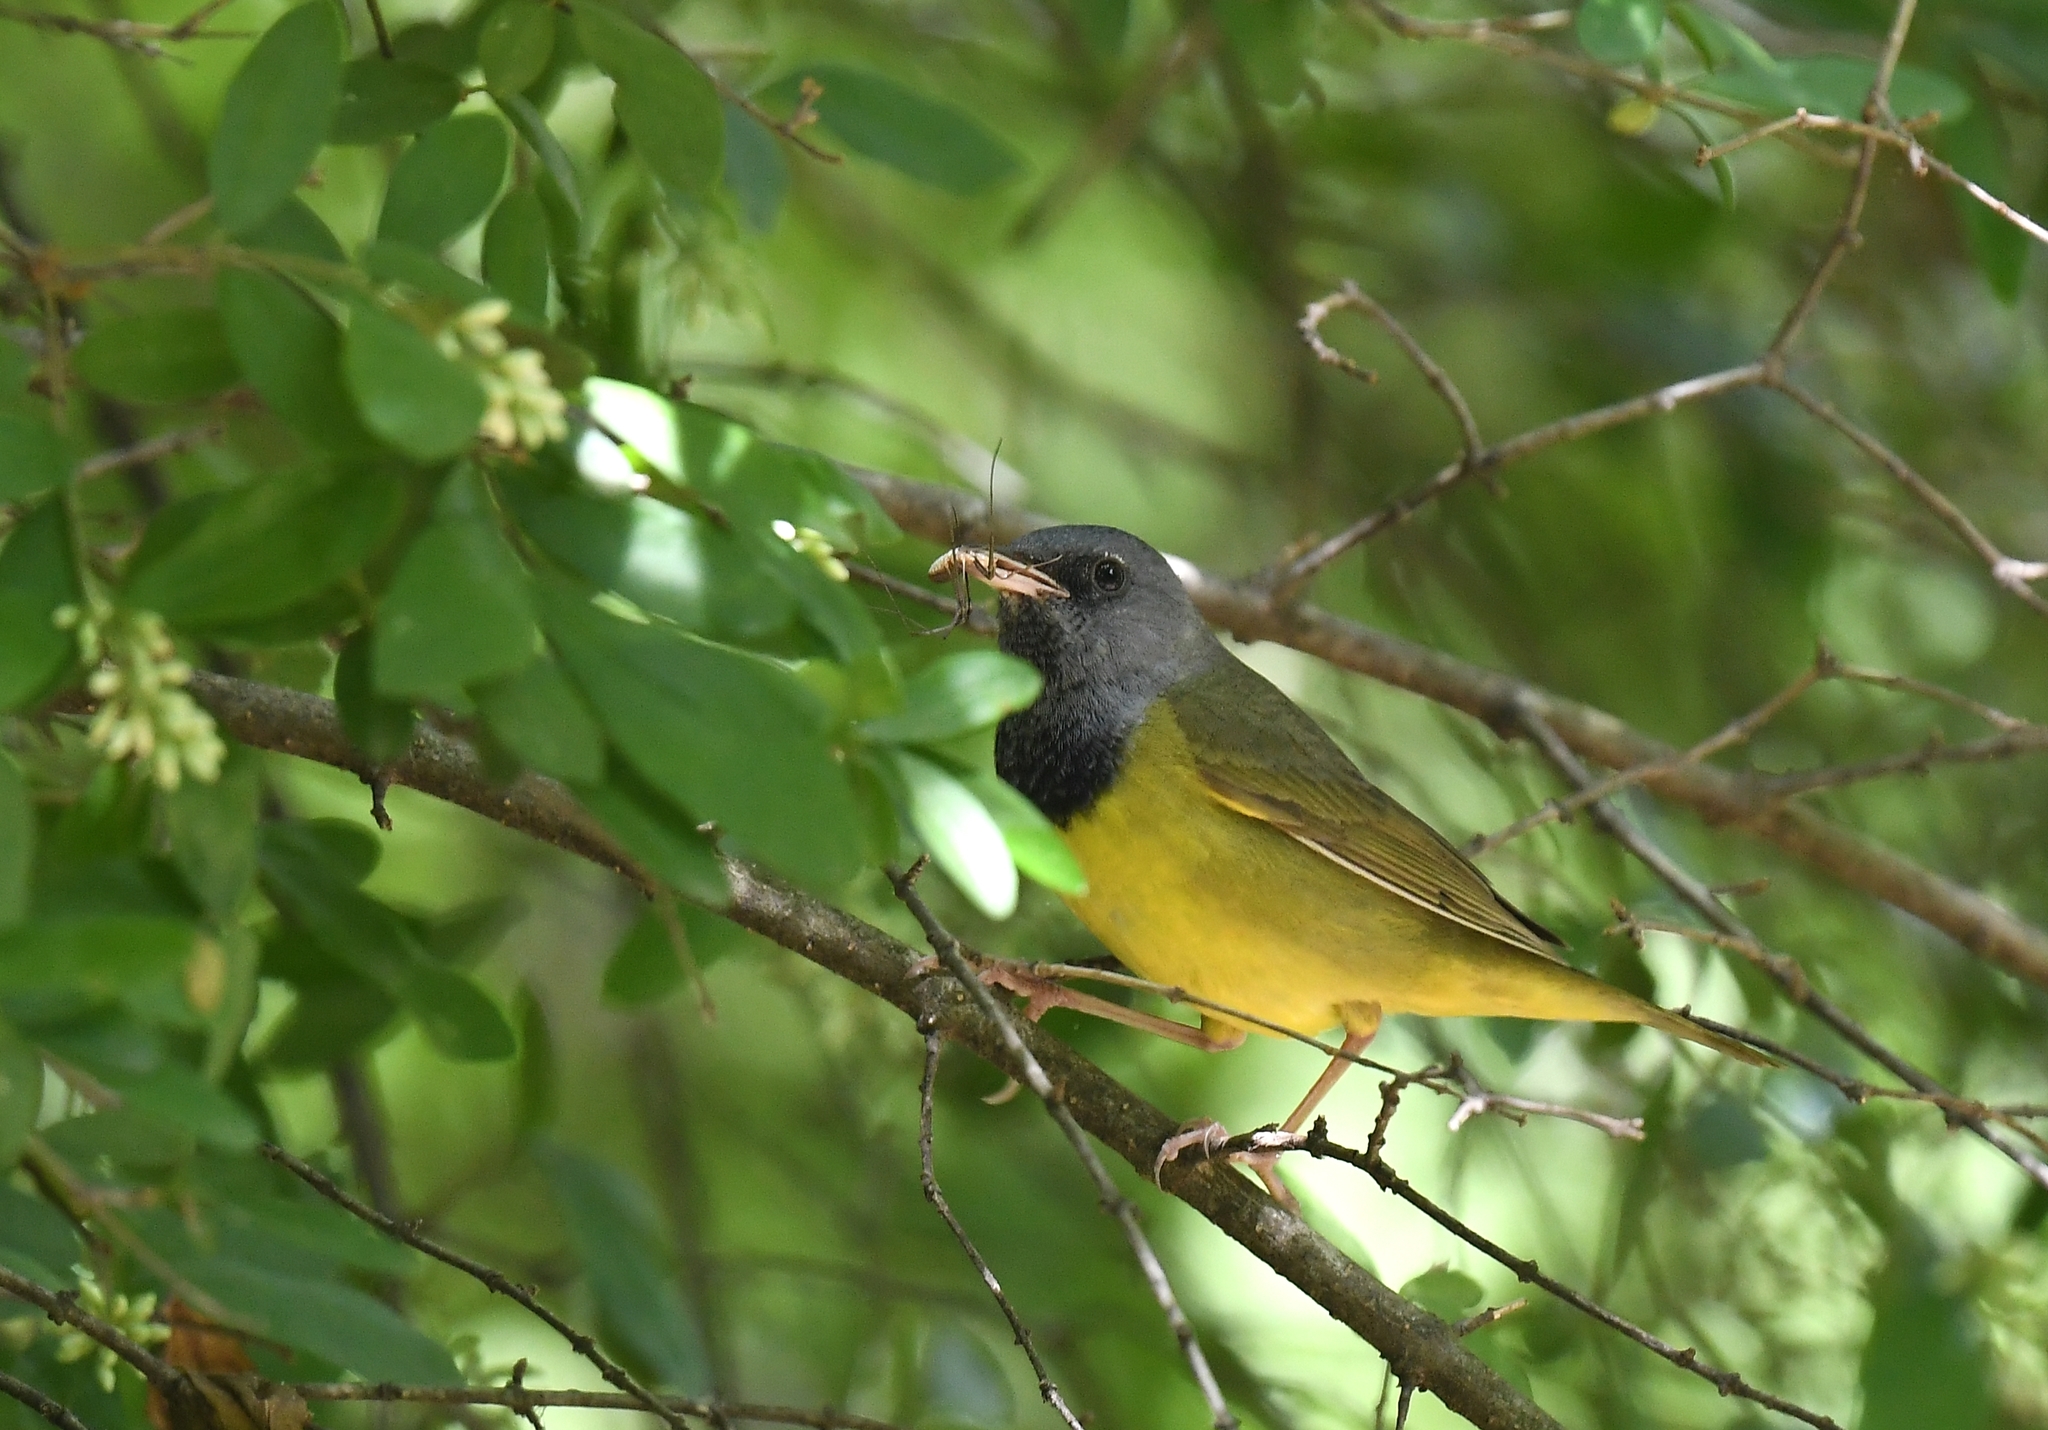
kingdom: Animalia
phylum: Chordata
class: Aves
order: Passeriformes
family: Parulidae
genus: Geothlypis
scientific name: Geothlypis philadelphia
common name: Mourning warbler
